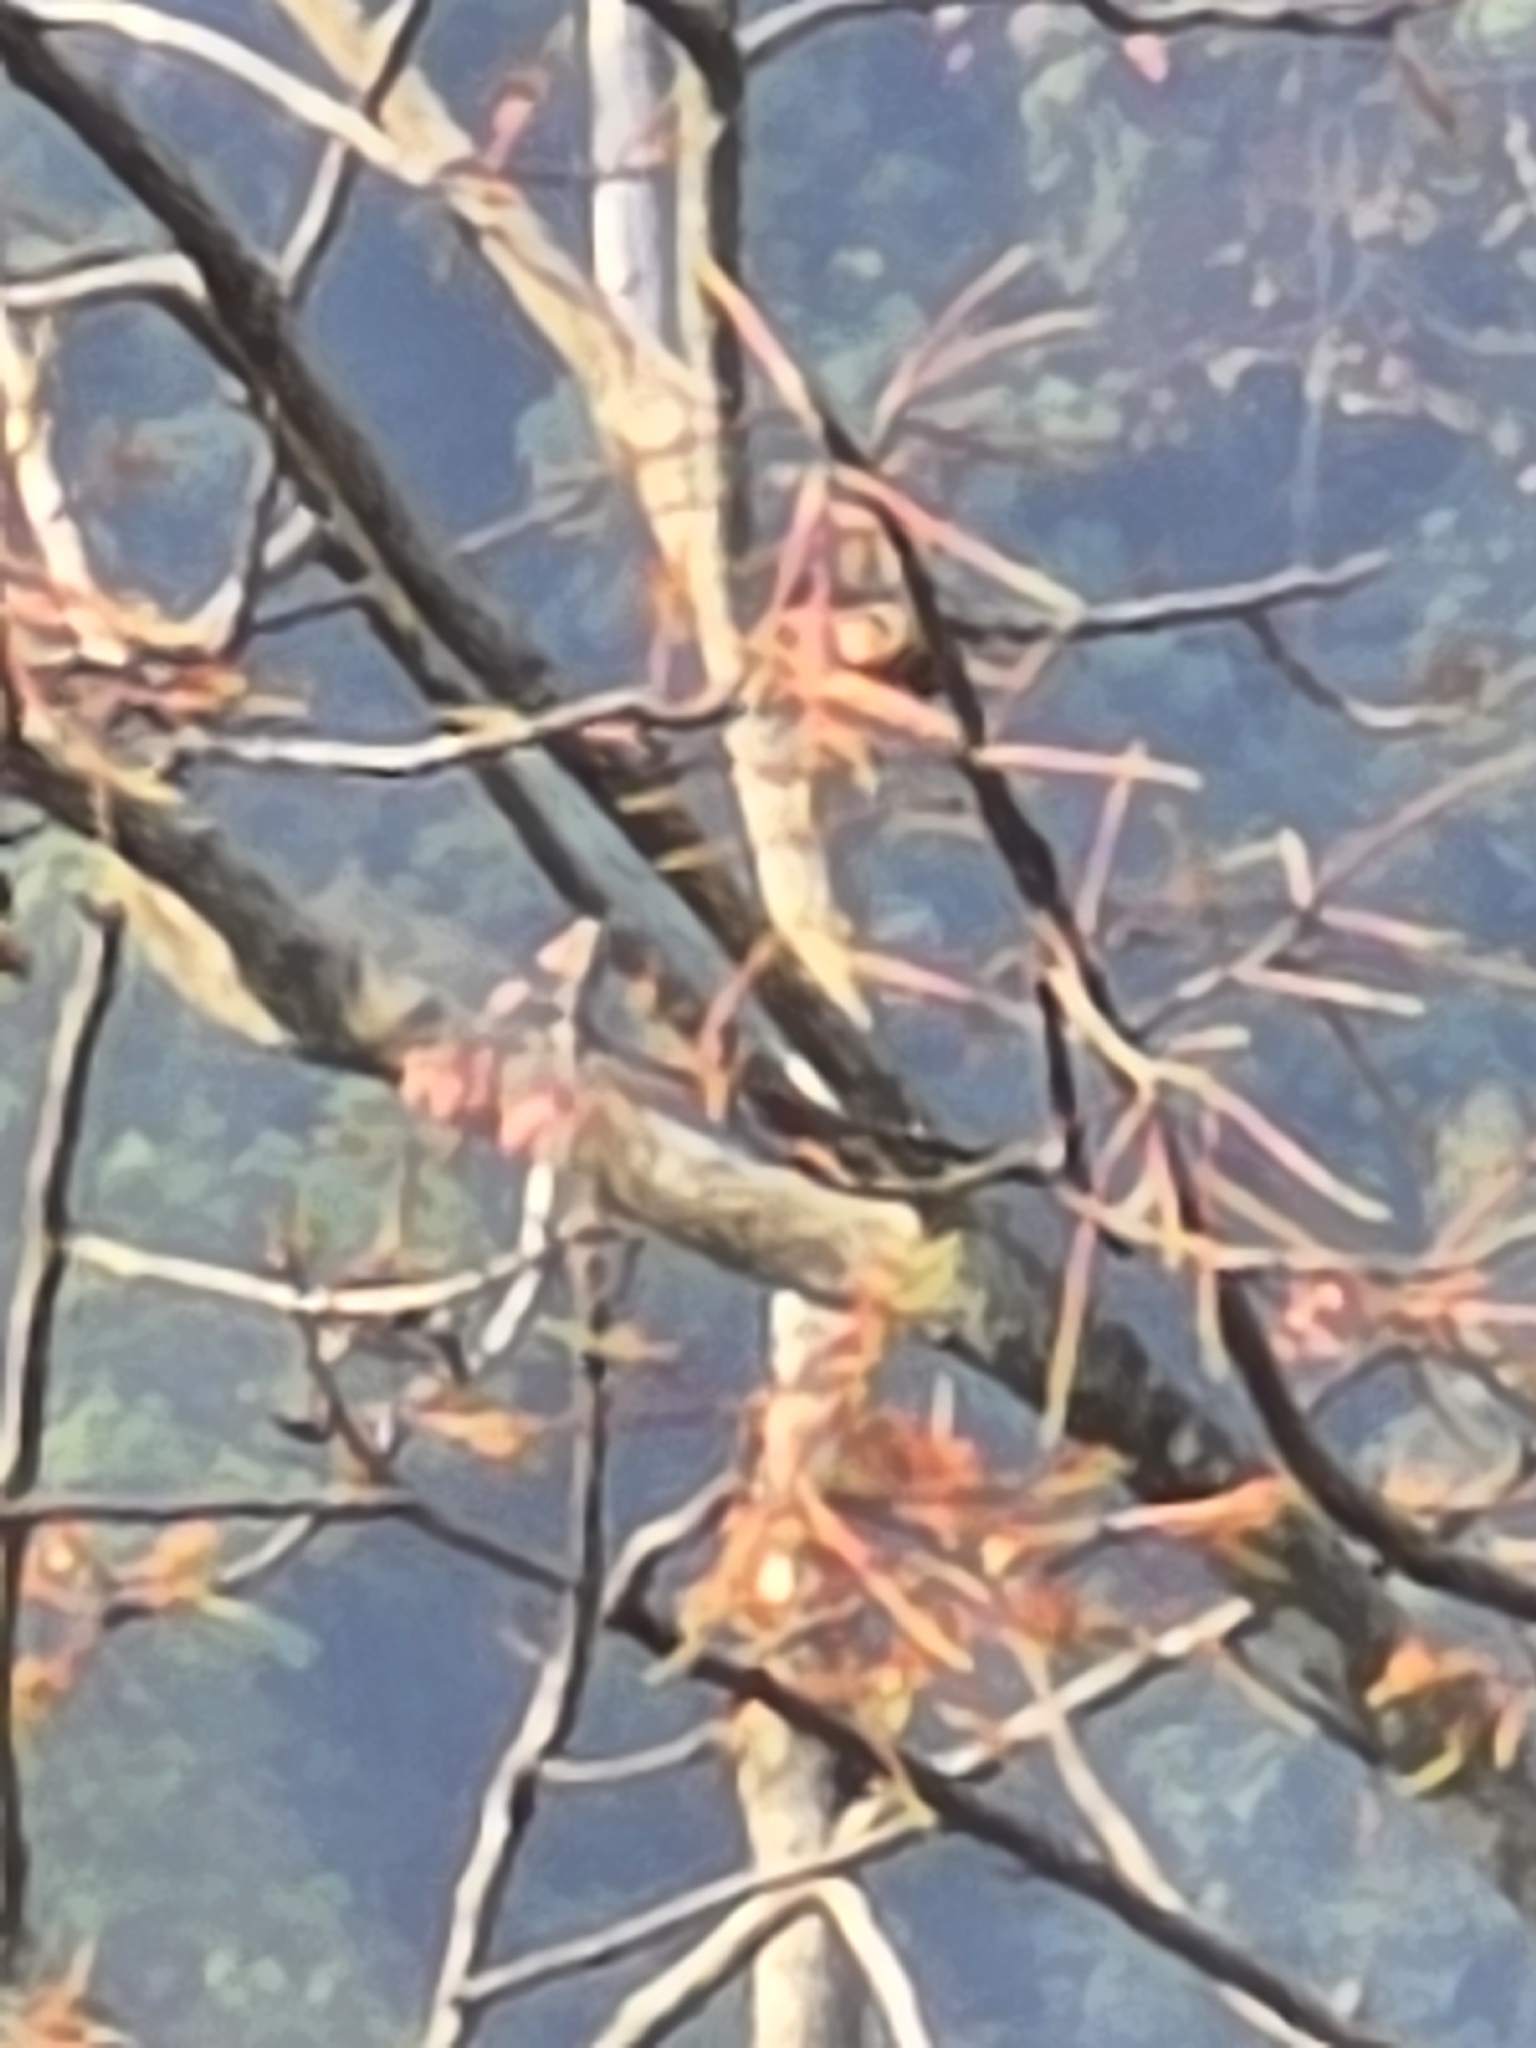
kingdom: Animalia
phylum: Chordata
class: Aves
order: Passeriformes
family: Dicruridae
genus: Dicrurus
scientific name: Dicrurus hottentottus
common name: Hair-crested drongo
